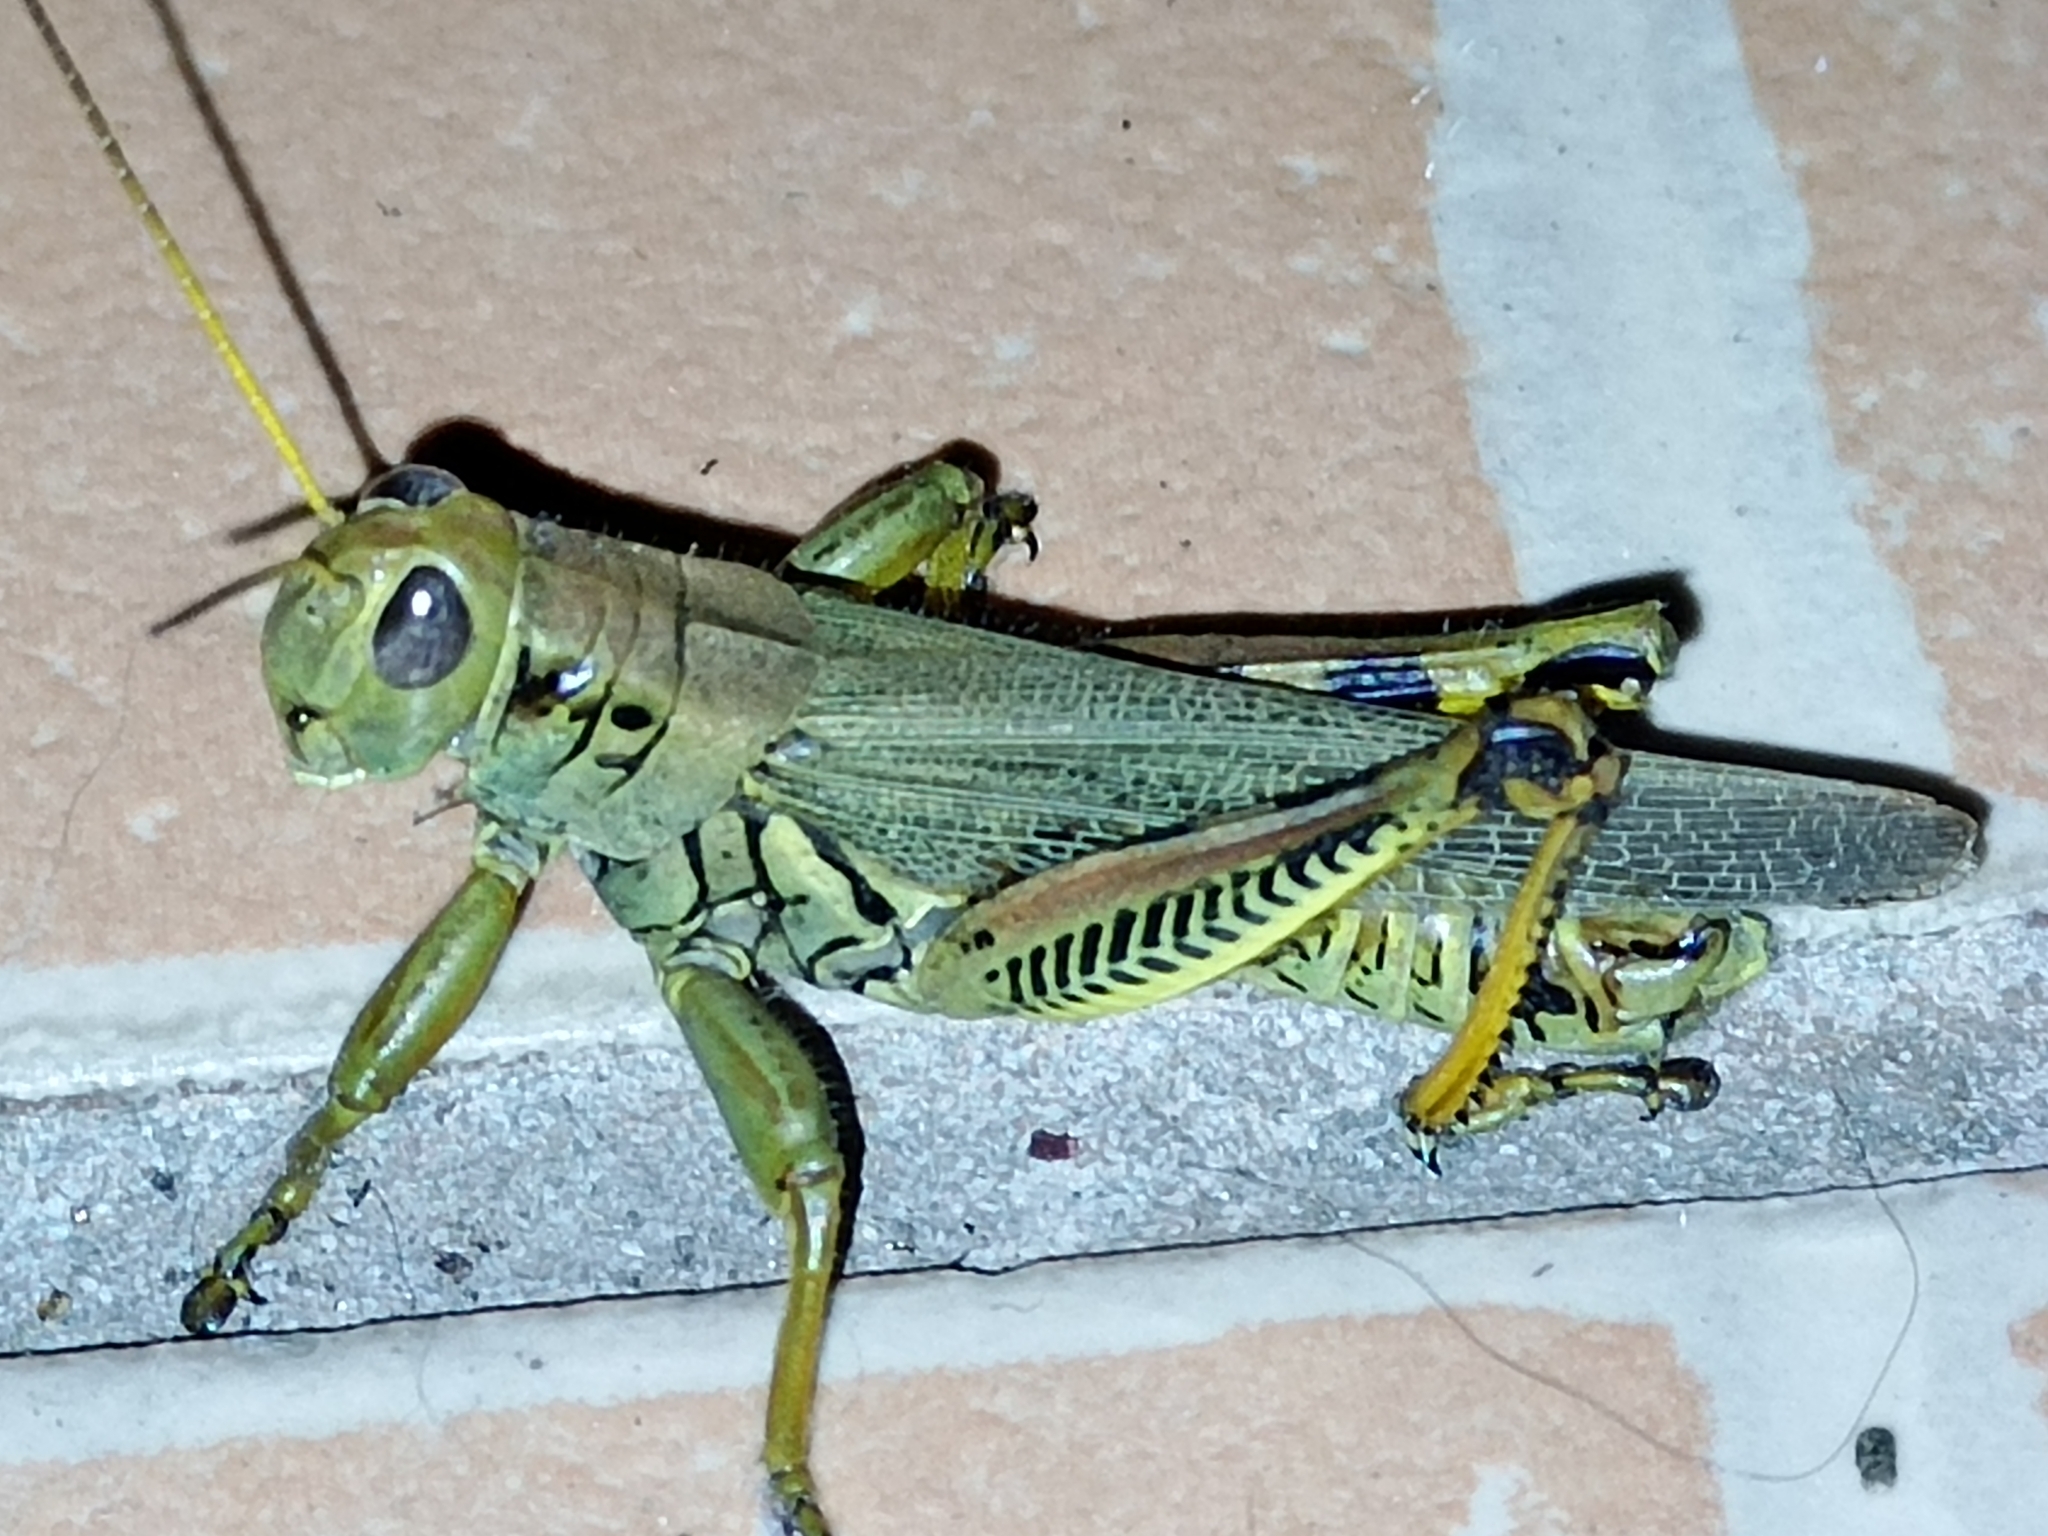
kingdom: Animalia
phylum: Arthropoda
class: Insecta
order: Orthoptera
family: Acrididae
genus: Melanoplus
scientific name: Melanoplus differentialis
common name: Differential grasshopper
